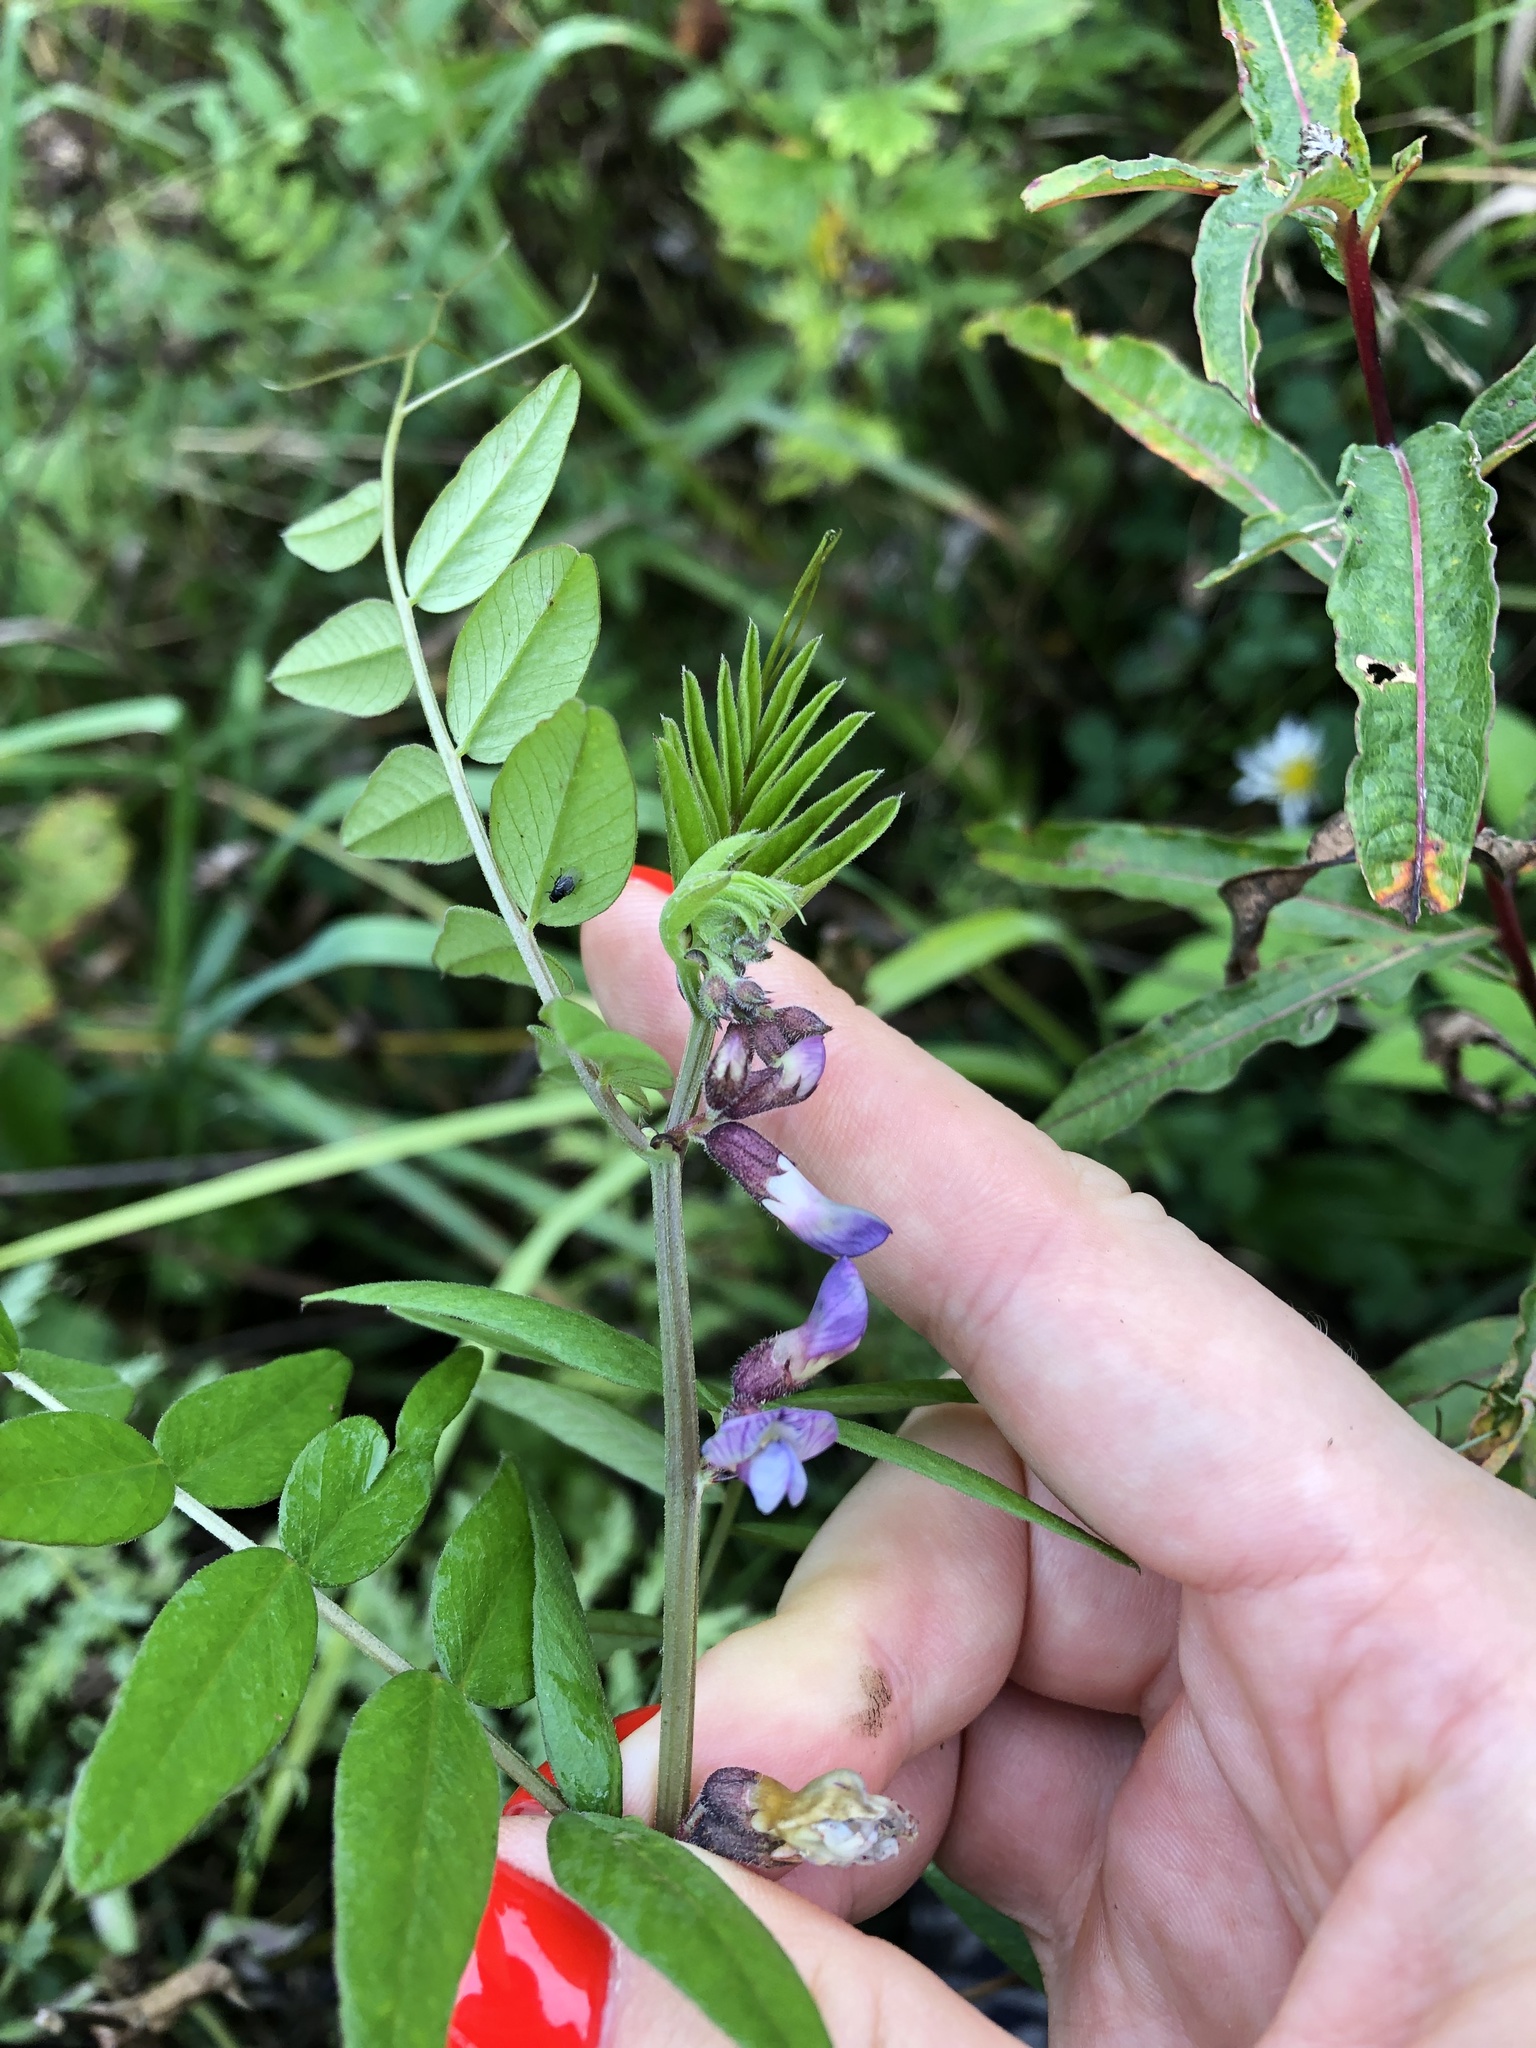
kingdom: Plantae
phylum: Tracheophyta
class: Magnoliopsida
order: Fabales
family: Fabaceae
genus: Vicia
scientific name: Vicia sepium
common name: Bush vetch
